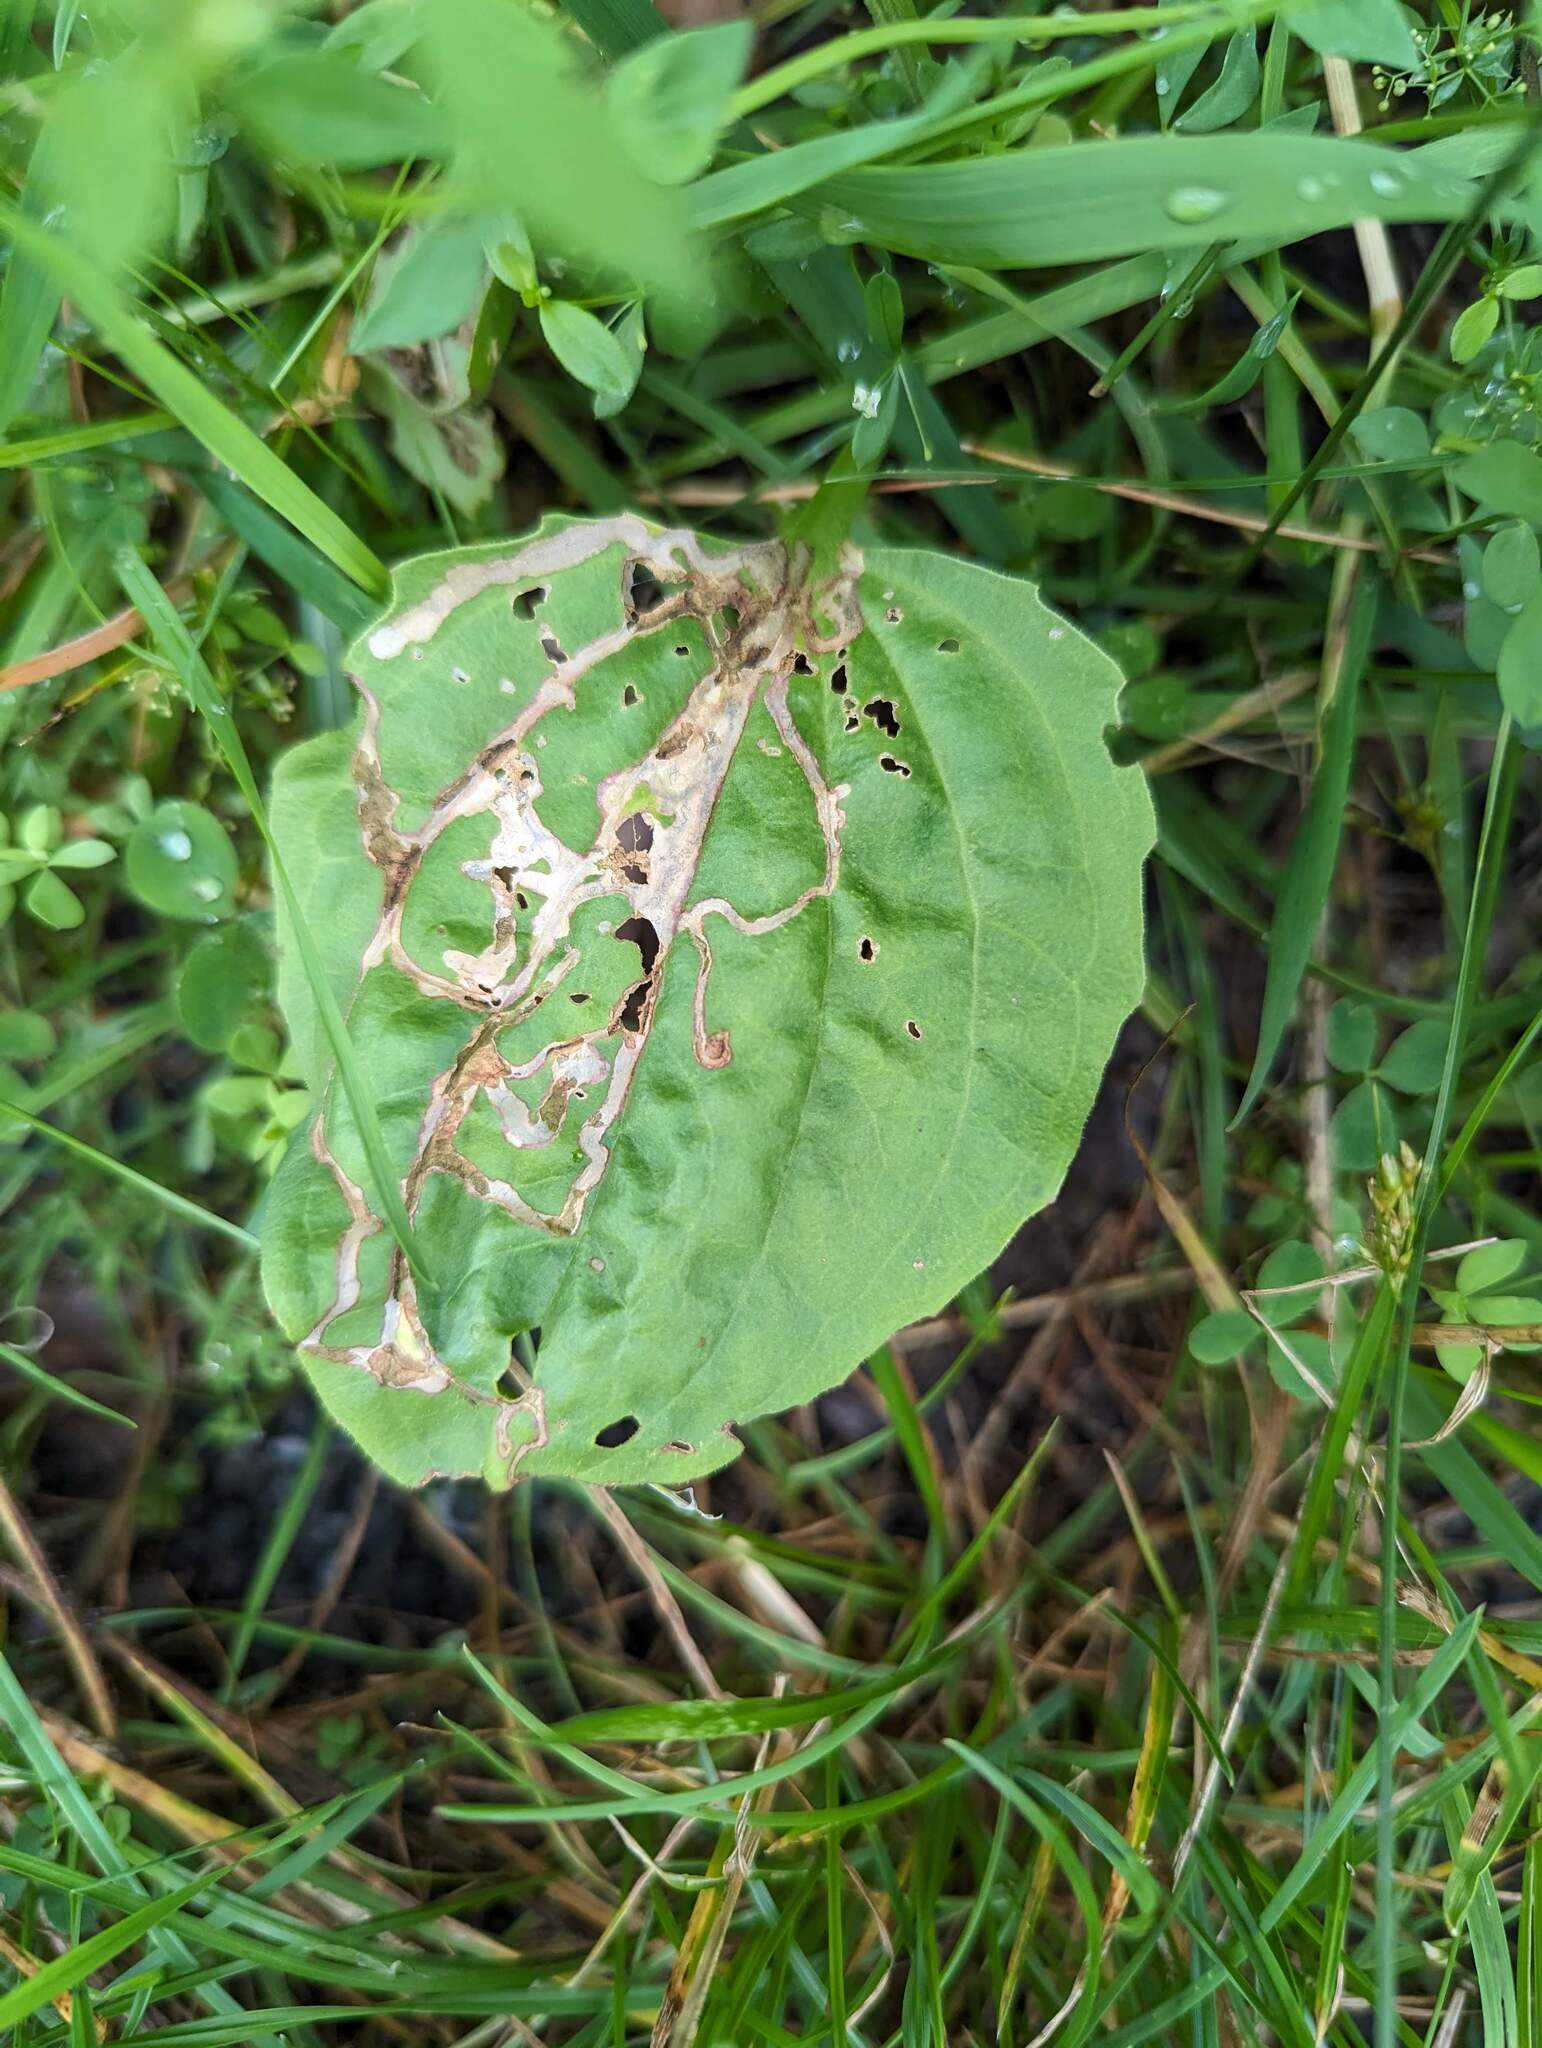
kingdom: Plantae
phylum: Tracheophyta
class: Magnoliopsida
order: Lamiales
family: Plantaginaceae
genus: Plantago
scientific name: Plantago major
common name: Common plantain
